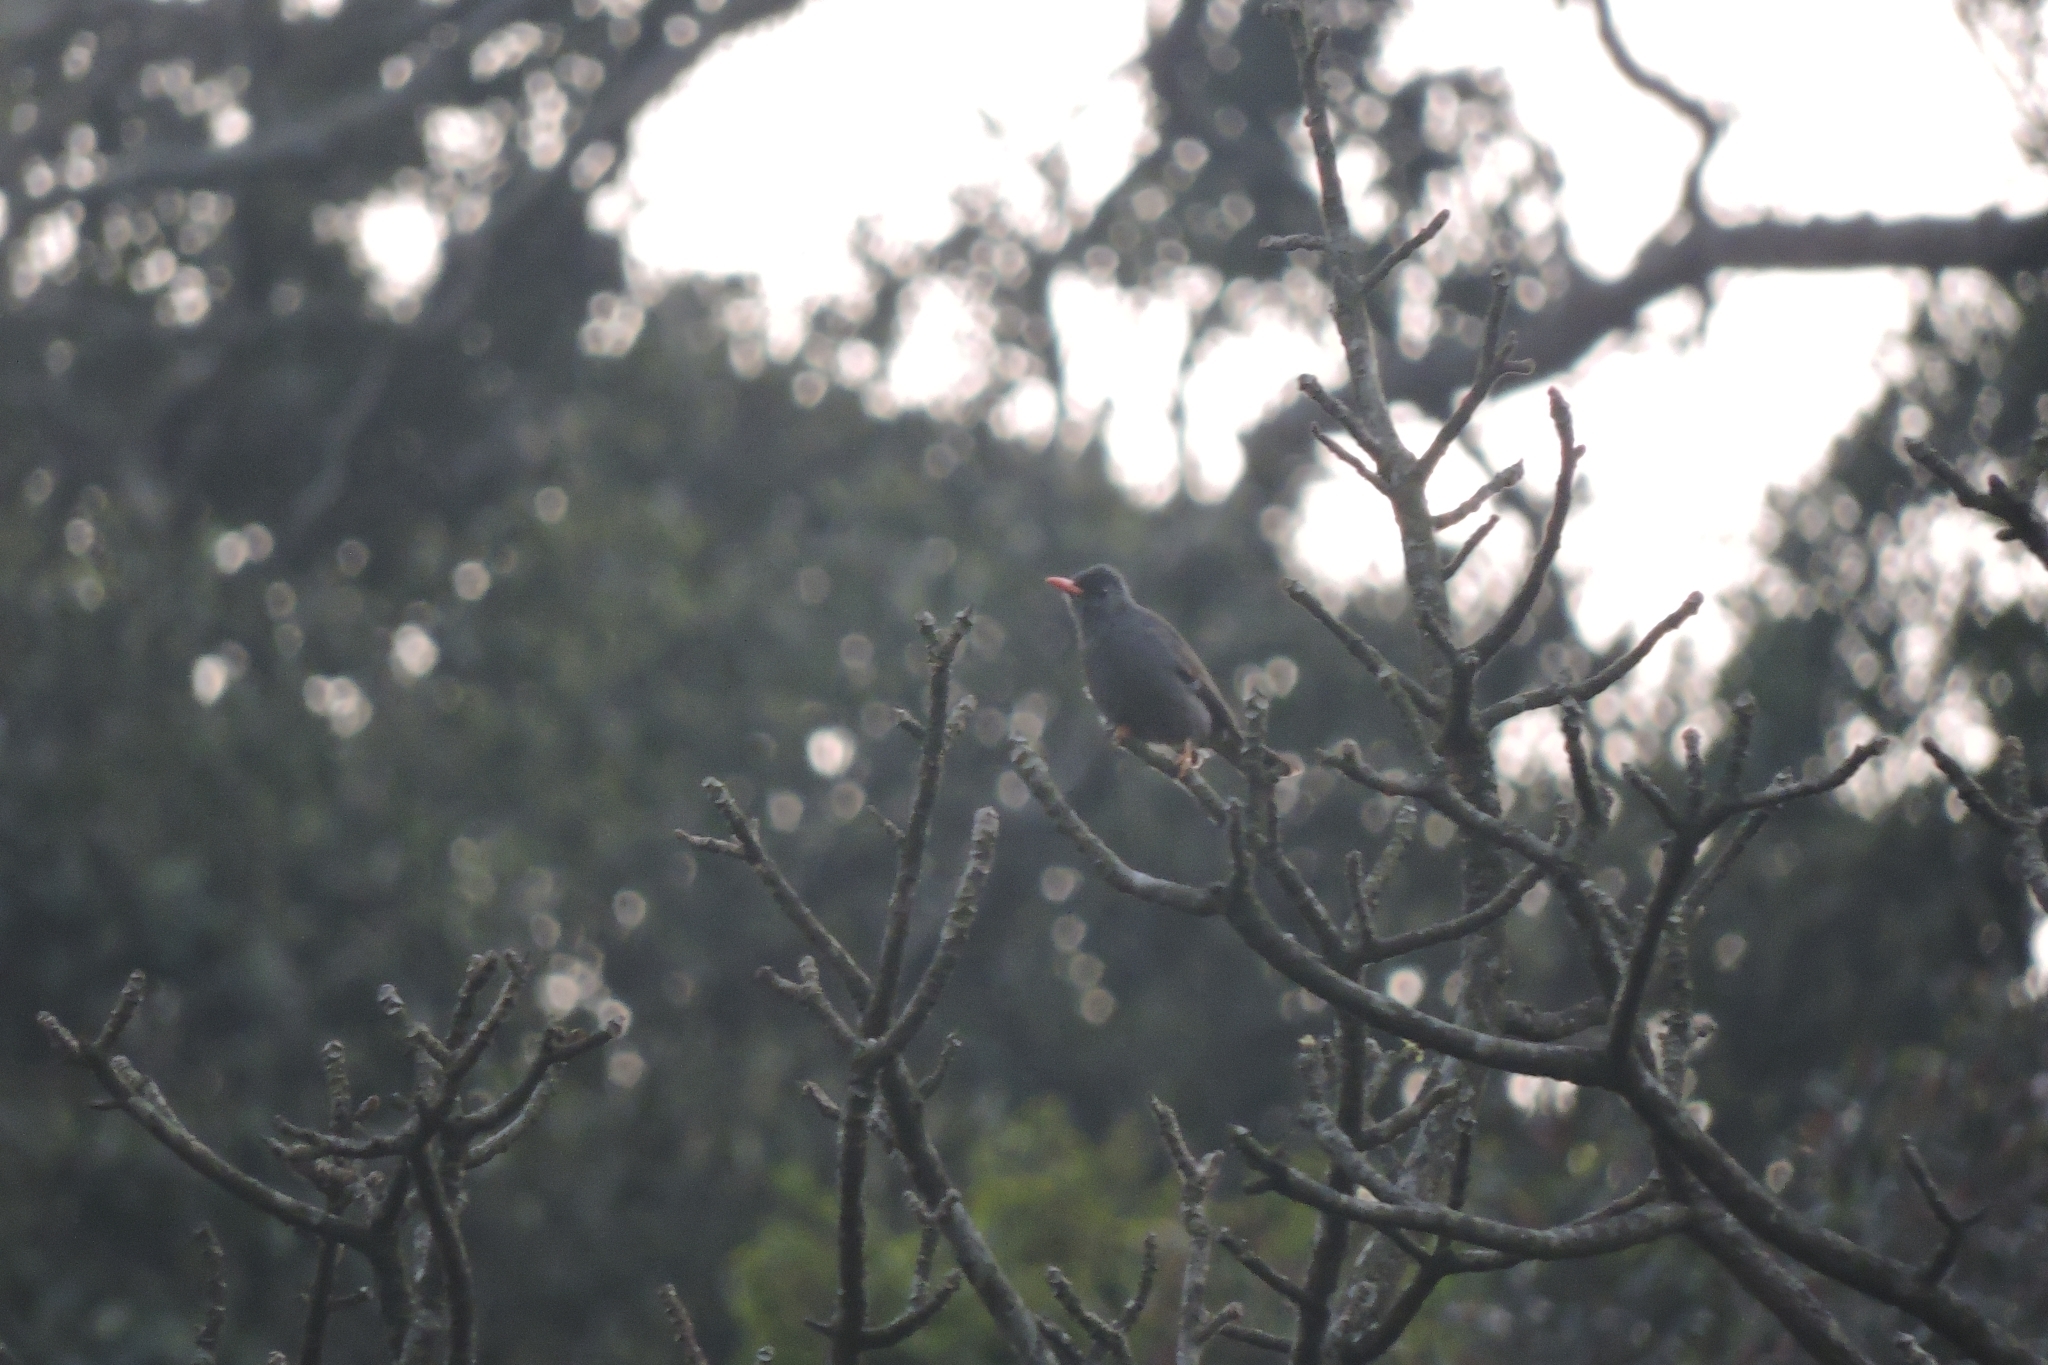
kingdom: Animalia
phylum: Chordata
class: Aves
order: Passeriformes
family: Turdidae
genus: Turdus
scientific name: Turdus simillimus
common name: Indian blackbird
